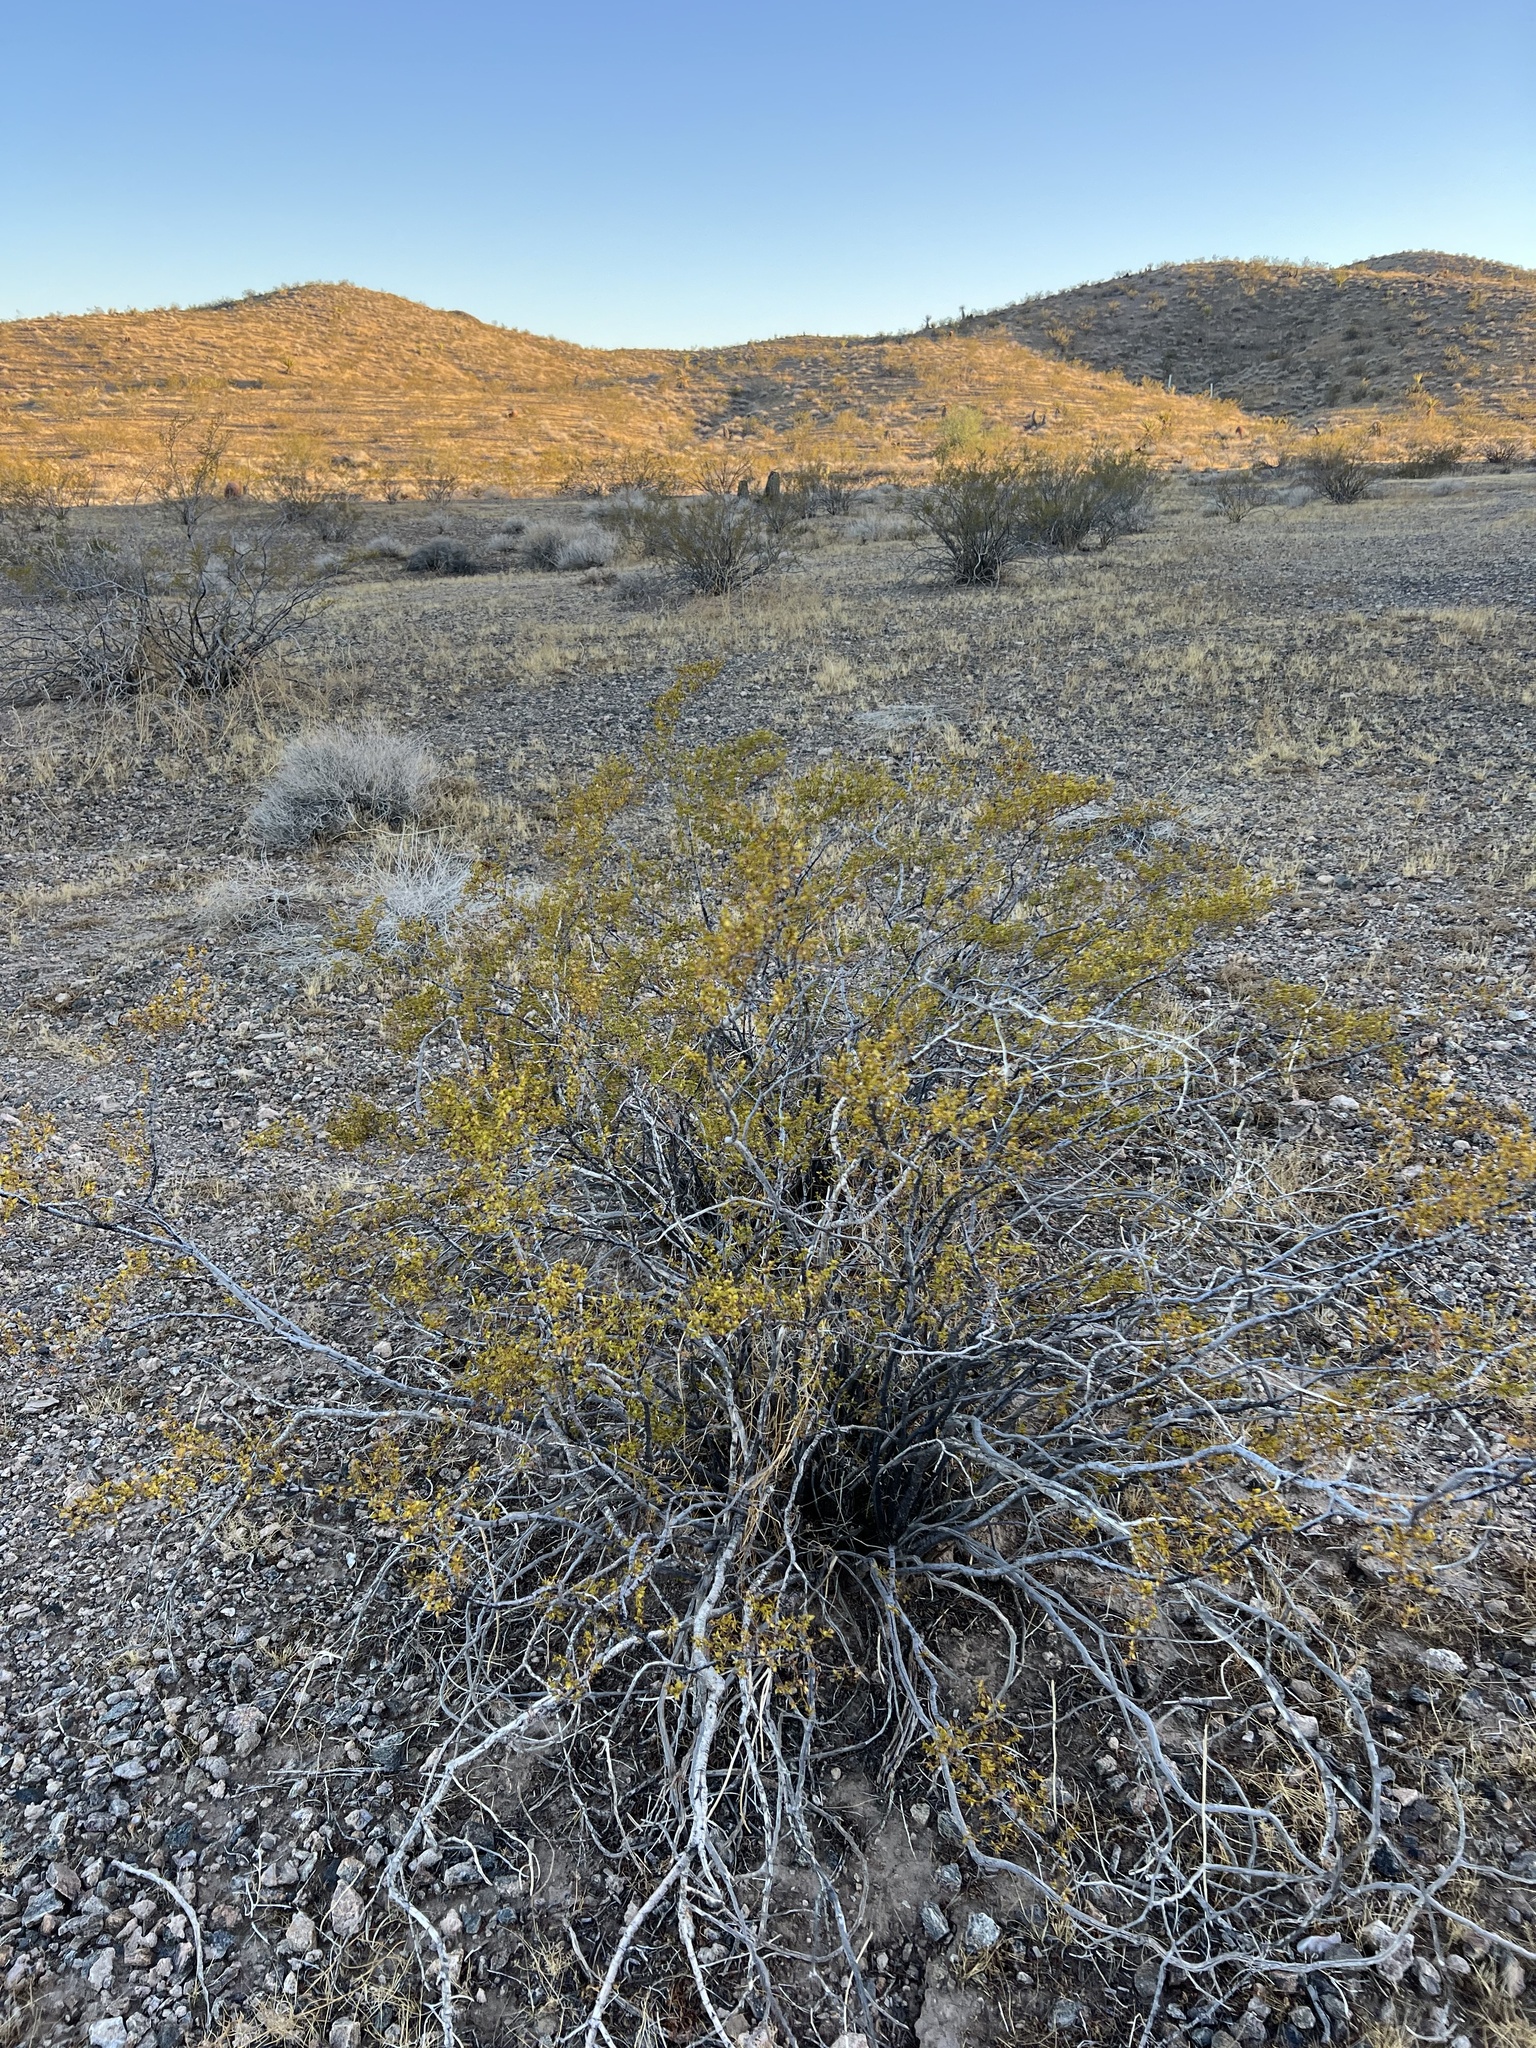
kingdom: Plantae
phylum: Tracheophyta
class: Magnoliopsida
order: Zygophyllales
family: Zygophyllaceae
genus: Larrea
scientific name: Larrea tridentata
